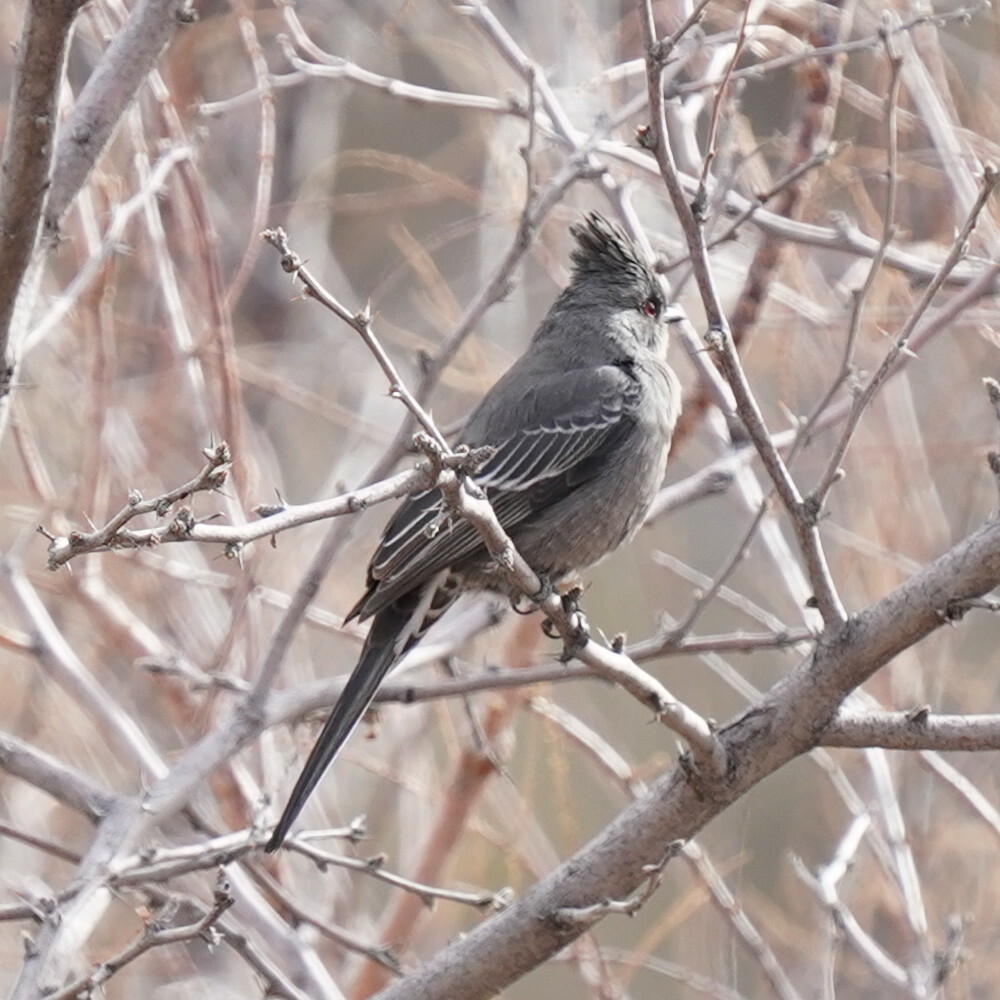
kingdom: Animalia
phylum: Chordata
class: Aves
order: Passeriformes
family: Ptilogonatidae
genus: Phainopepla
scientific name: Phainopepla nitens
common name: Phainopepla
